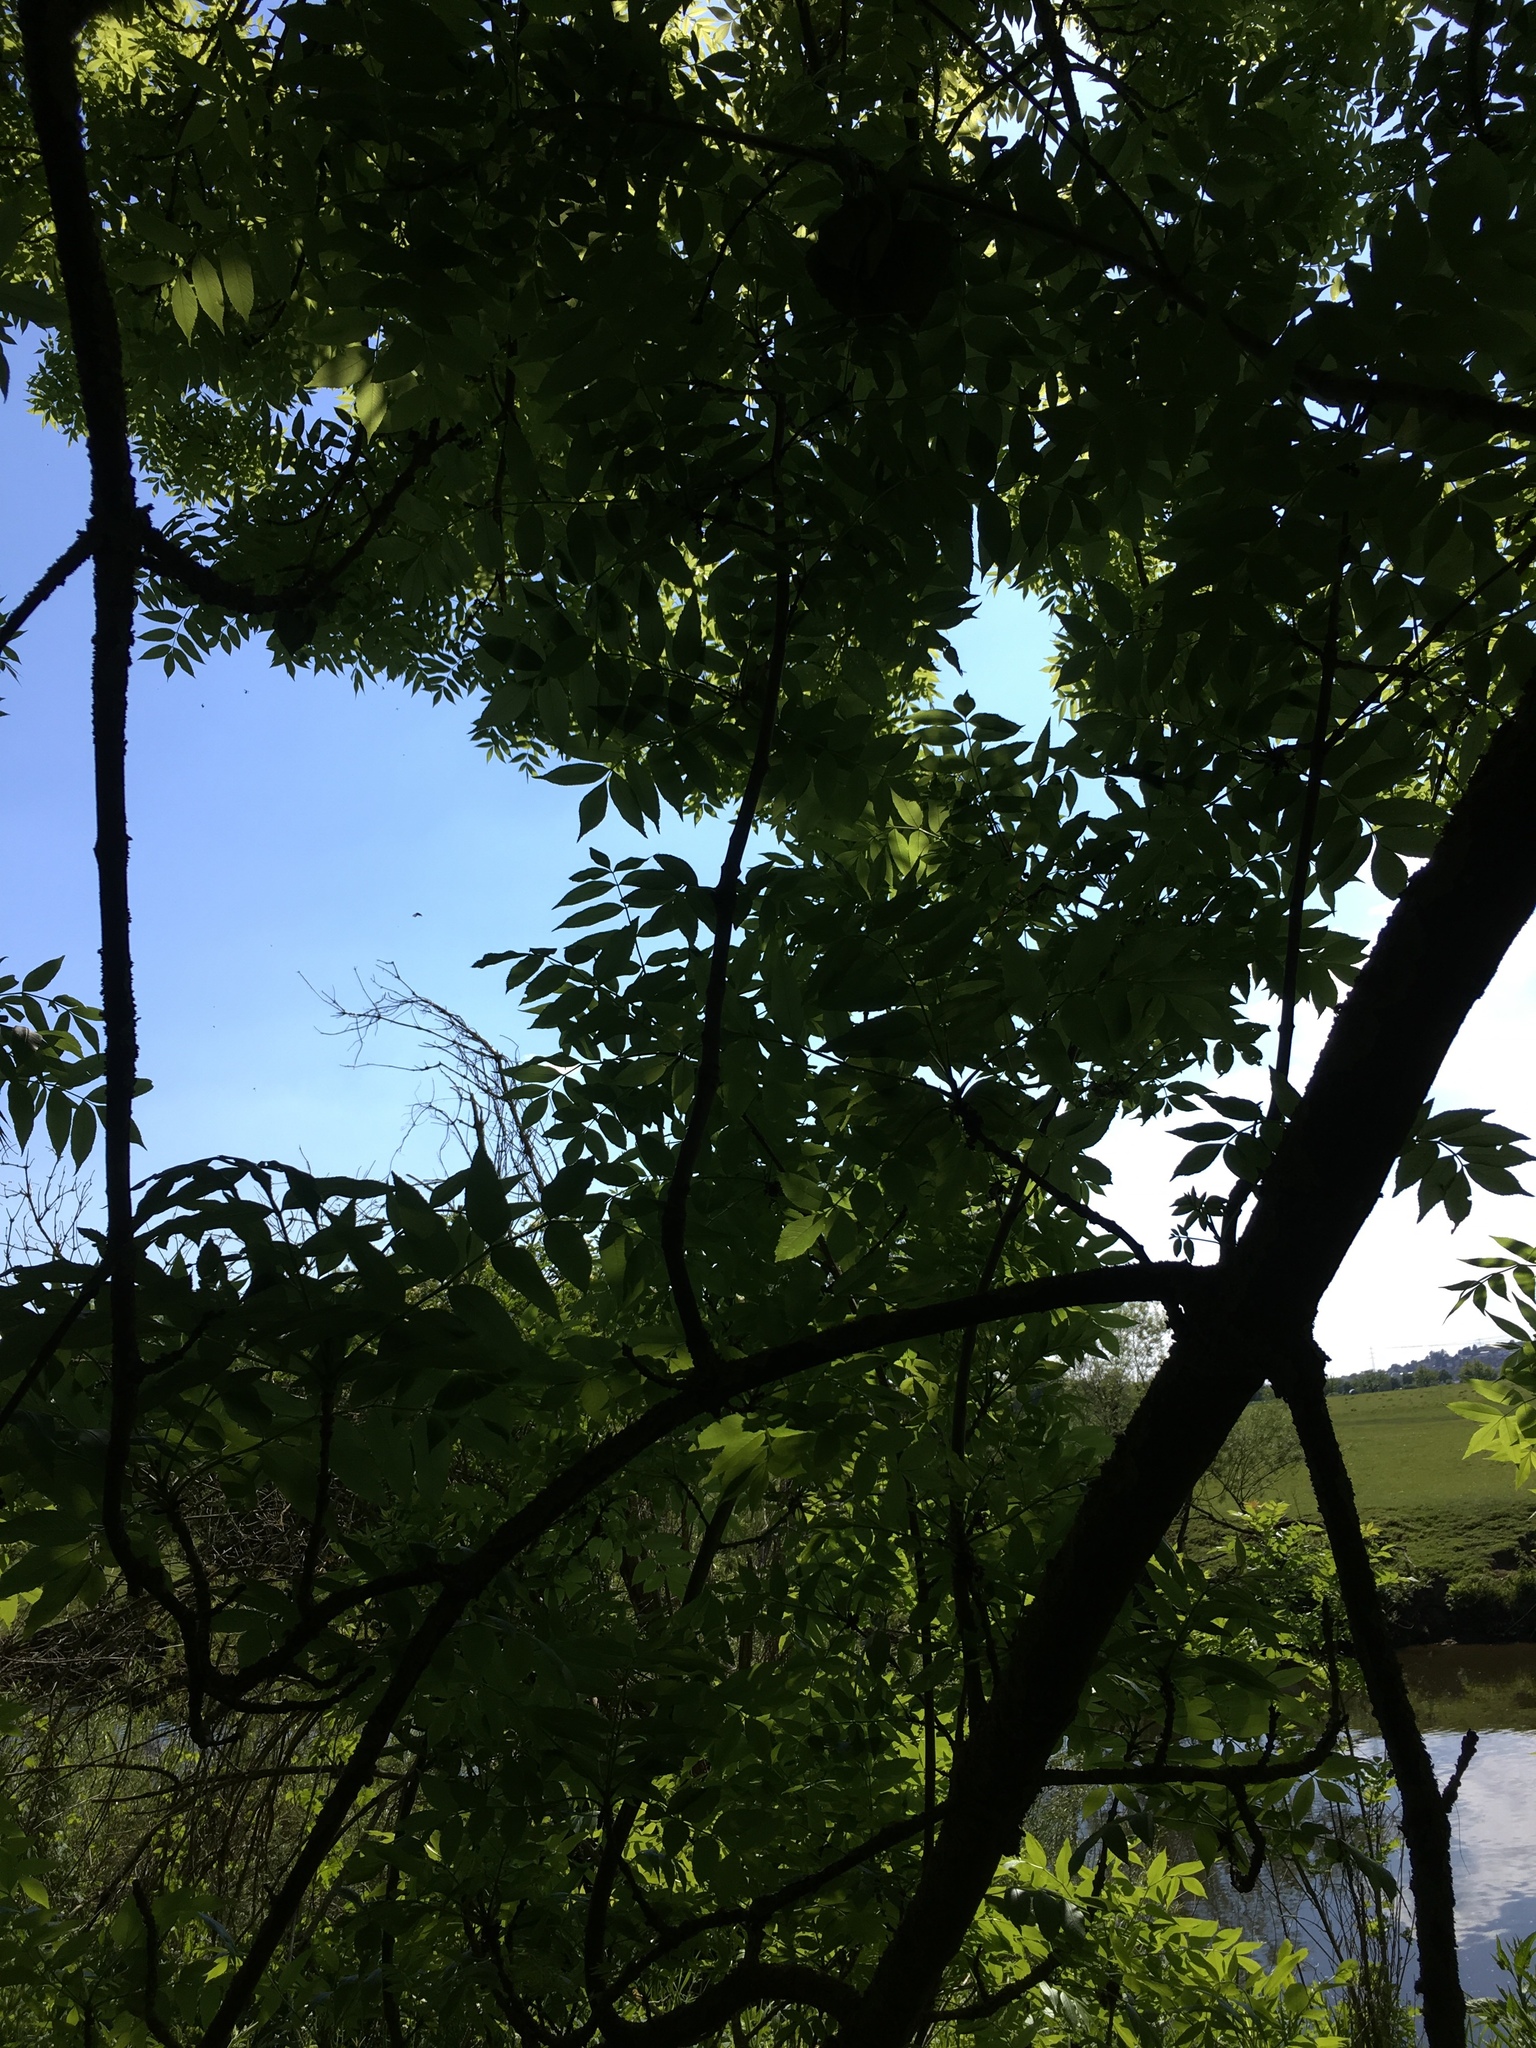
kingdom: Plantae
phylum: Tracheophyta
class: Magnoliopsida
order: Lamiales
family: Oleaceae
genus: Fraxinus
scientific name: Fraxinus excelsior
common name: European ash
